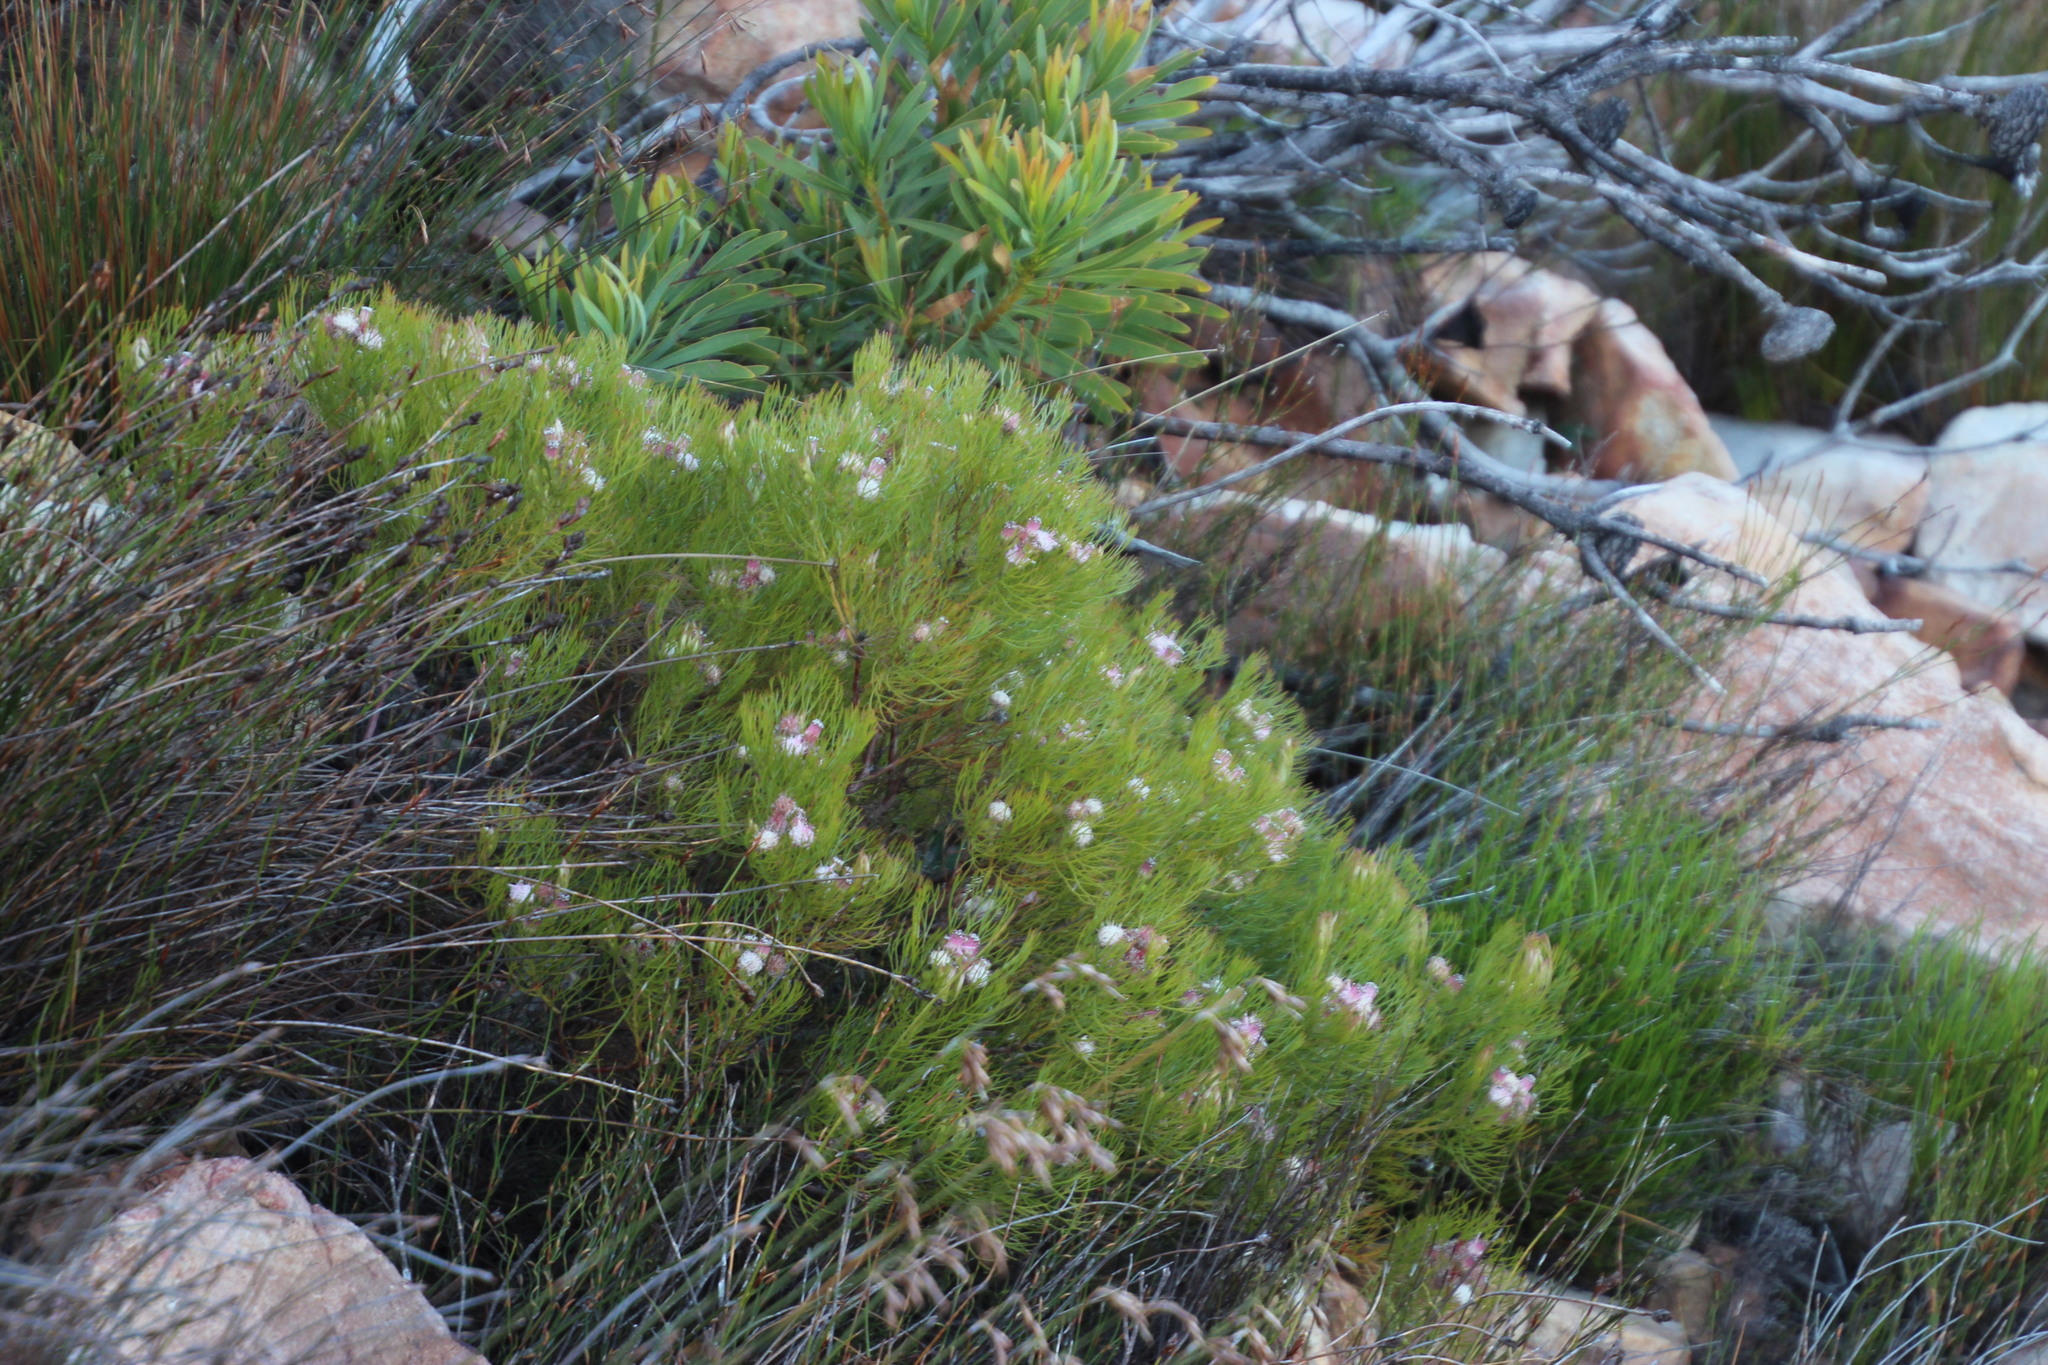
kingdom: Plantae
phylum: Tracheophyta
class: Magnoliopsida
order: Proteales
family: Proteaceae
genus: Serruria
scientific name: Serruria fasciflora
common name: Common pin spiderhead
